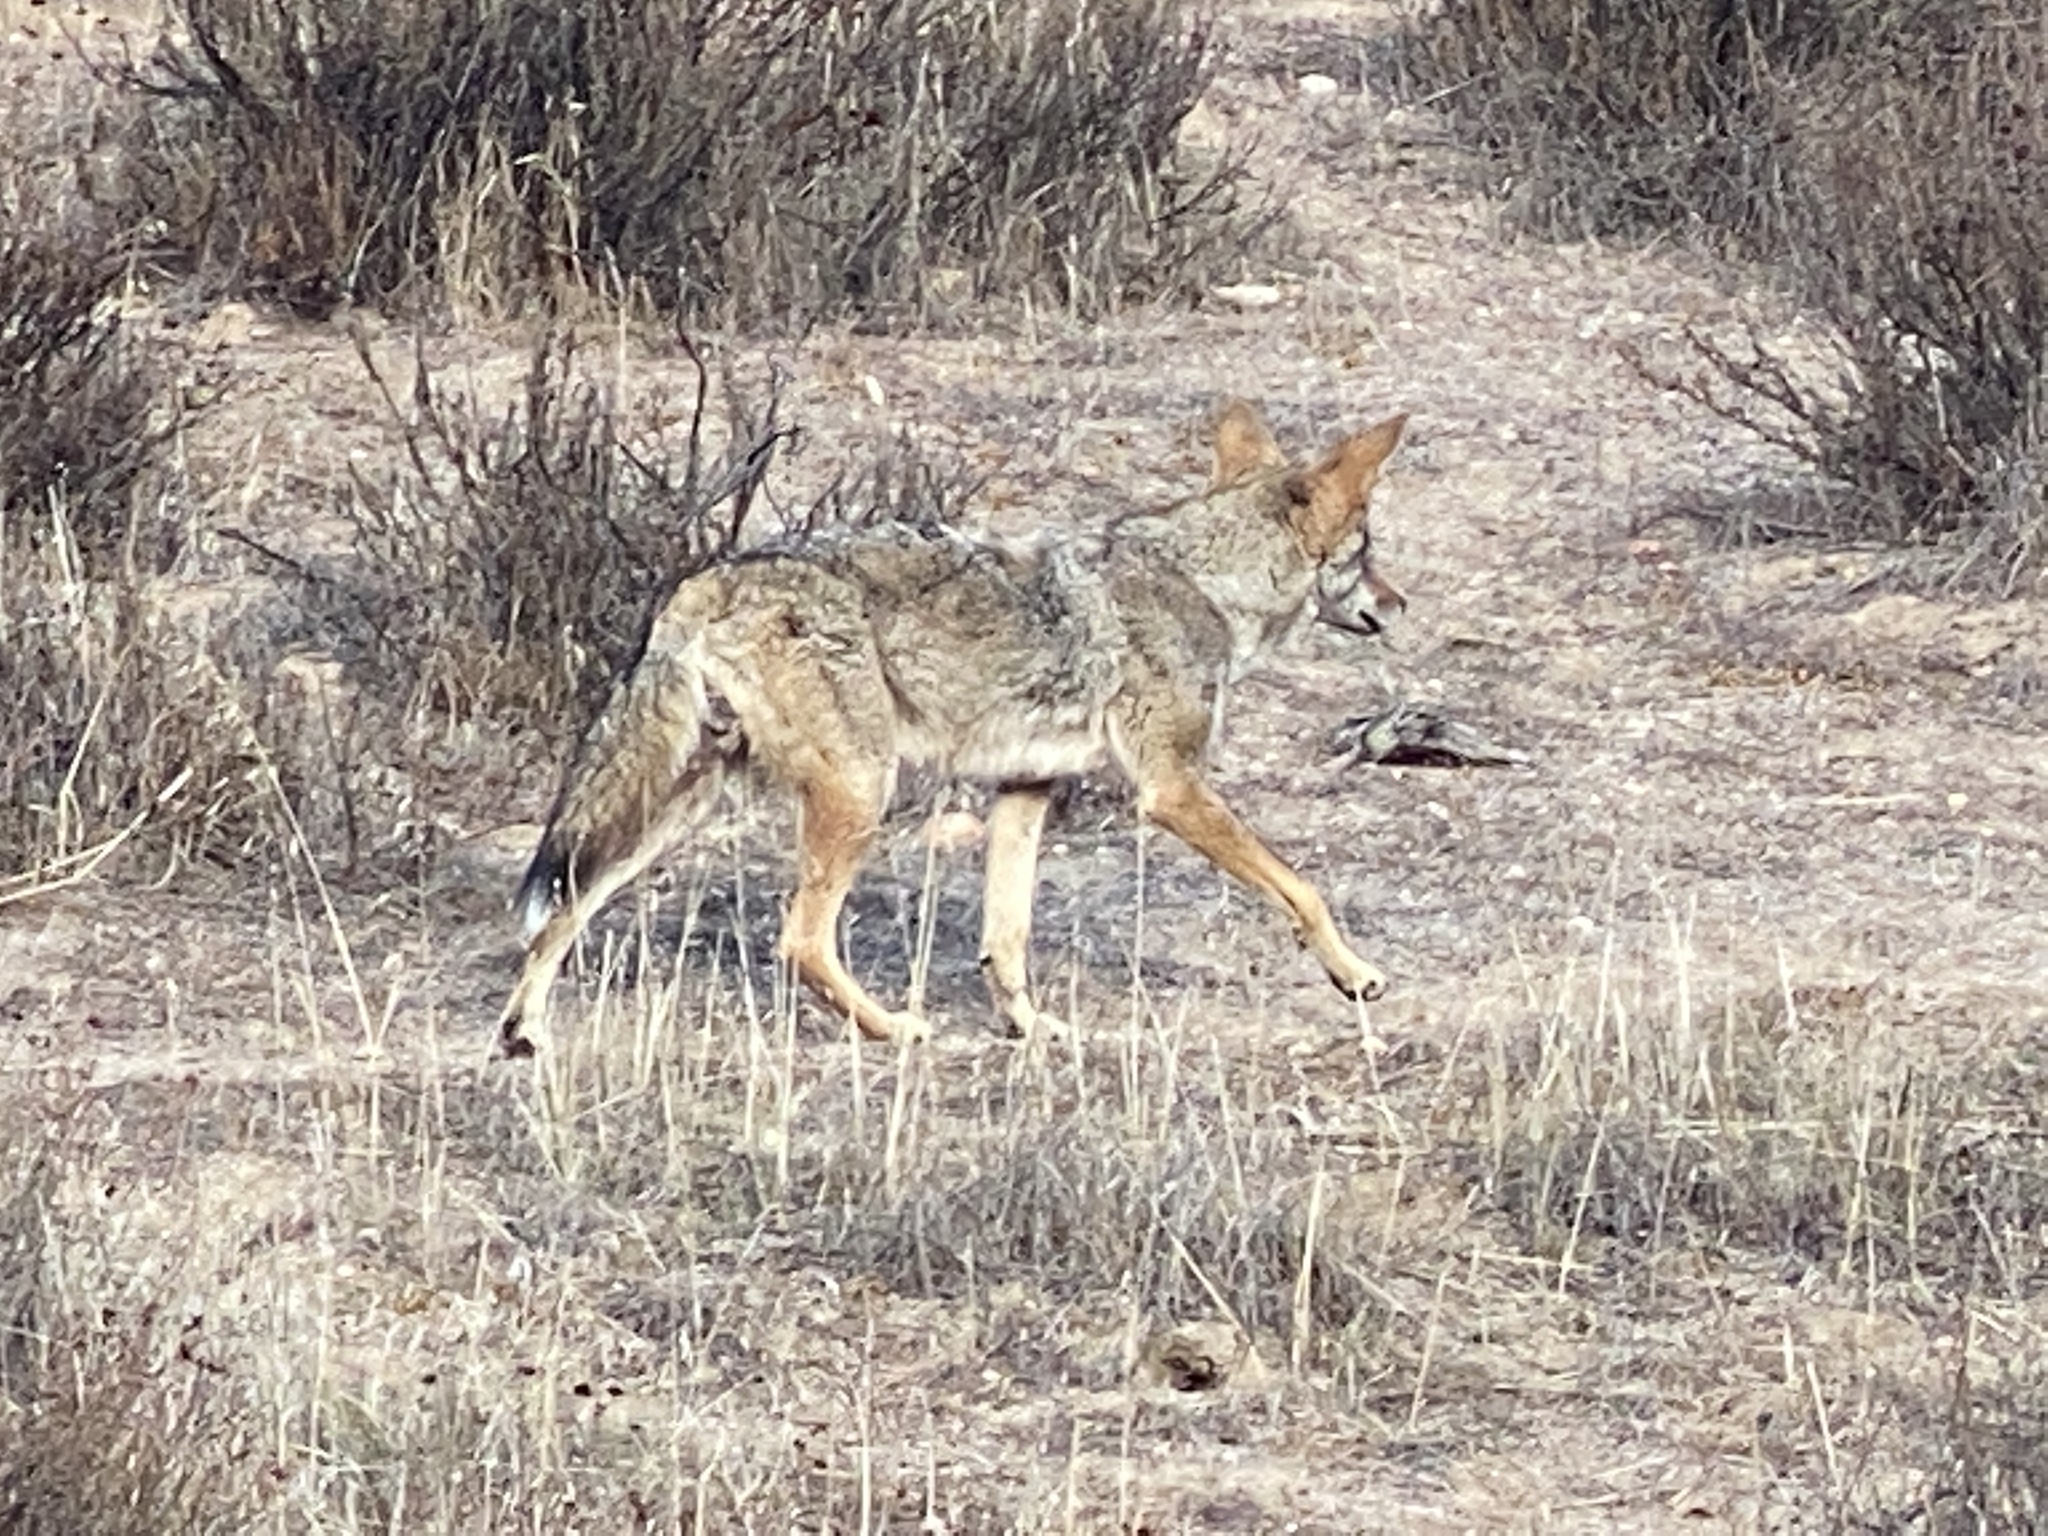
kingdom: Animalia
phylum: Chordata
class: Mammalia
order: Carnivora
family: Canidae
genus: Canis
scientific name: Canis latrans
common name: Coyote
